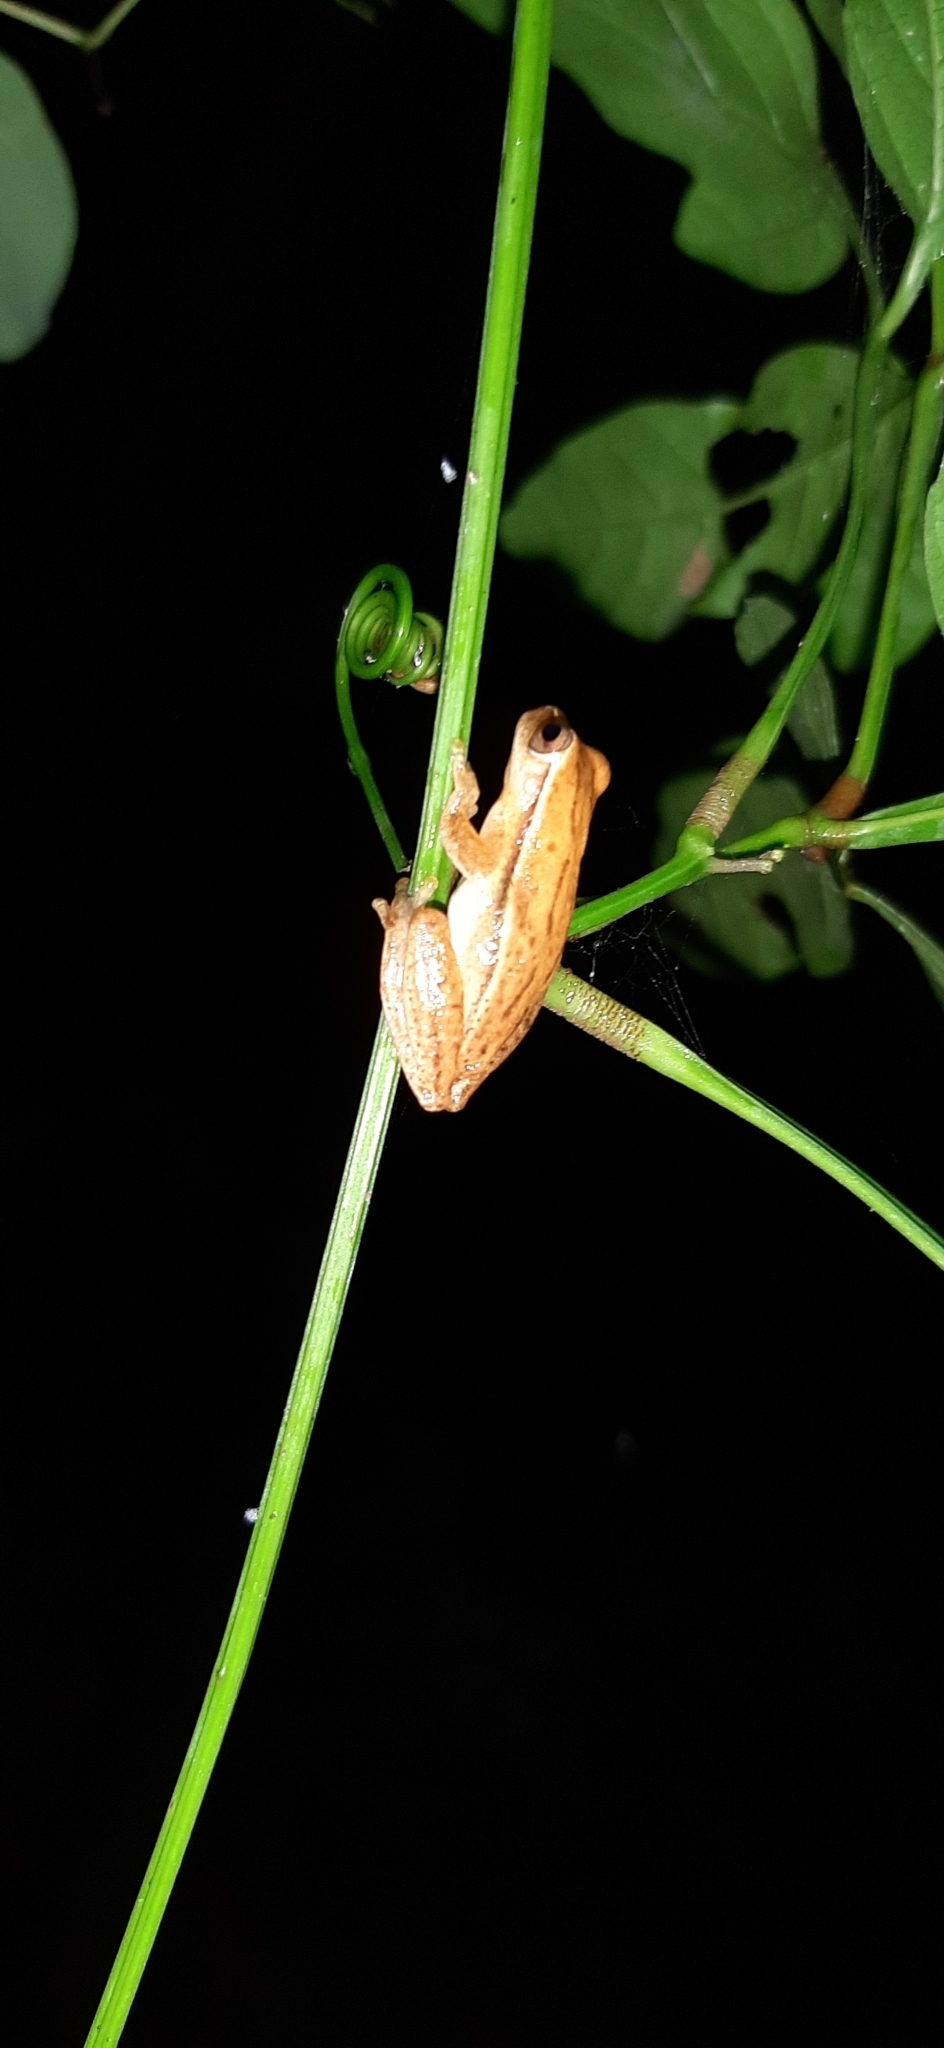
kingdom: Animalia
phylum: Chordata
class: Amphibia
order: Anura
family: Hylidae
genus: Dendropsophus
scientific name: Dendropsophus microcephalus
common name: Small-headed treefrog
